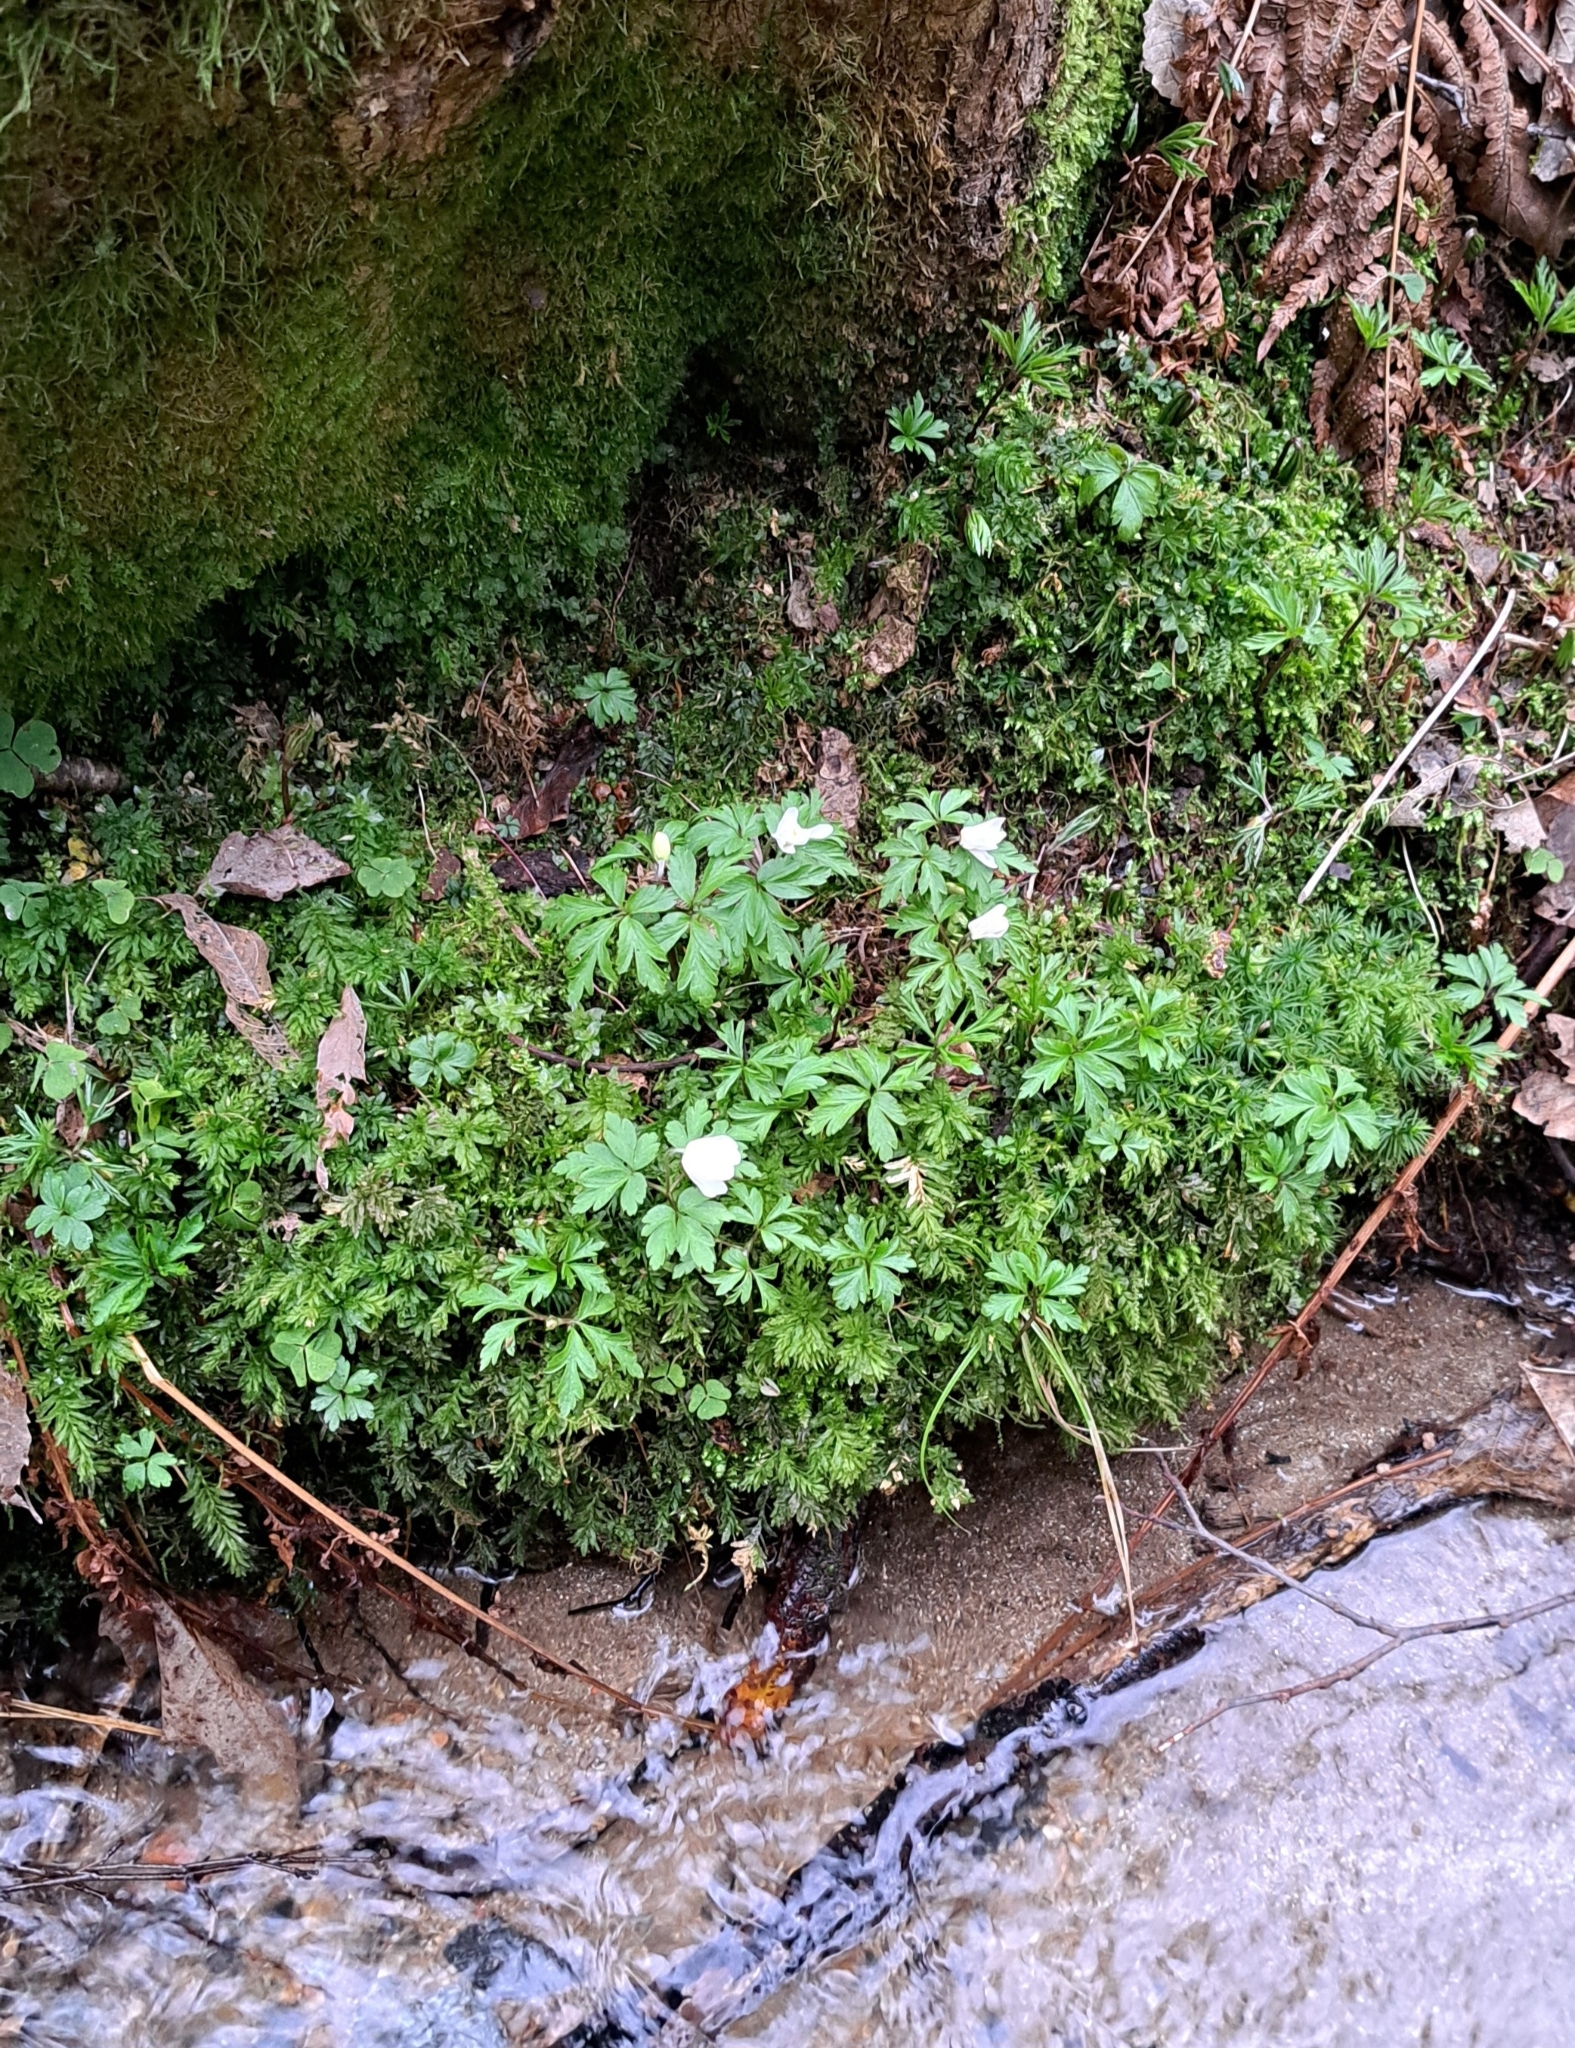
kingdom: Plantae
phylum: Tracheophyta
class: Magnoliopsida
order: Ranunculales
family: Ranunculaceae
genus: Anemone
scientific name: Anemone nemorosa
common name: Wood anemone
